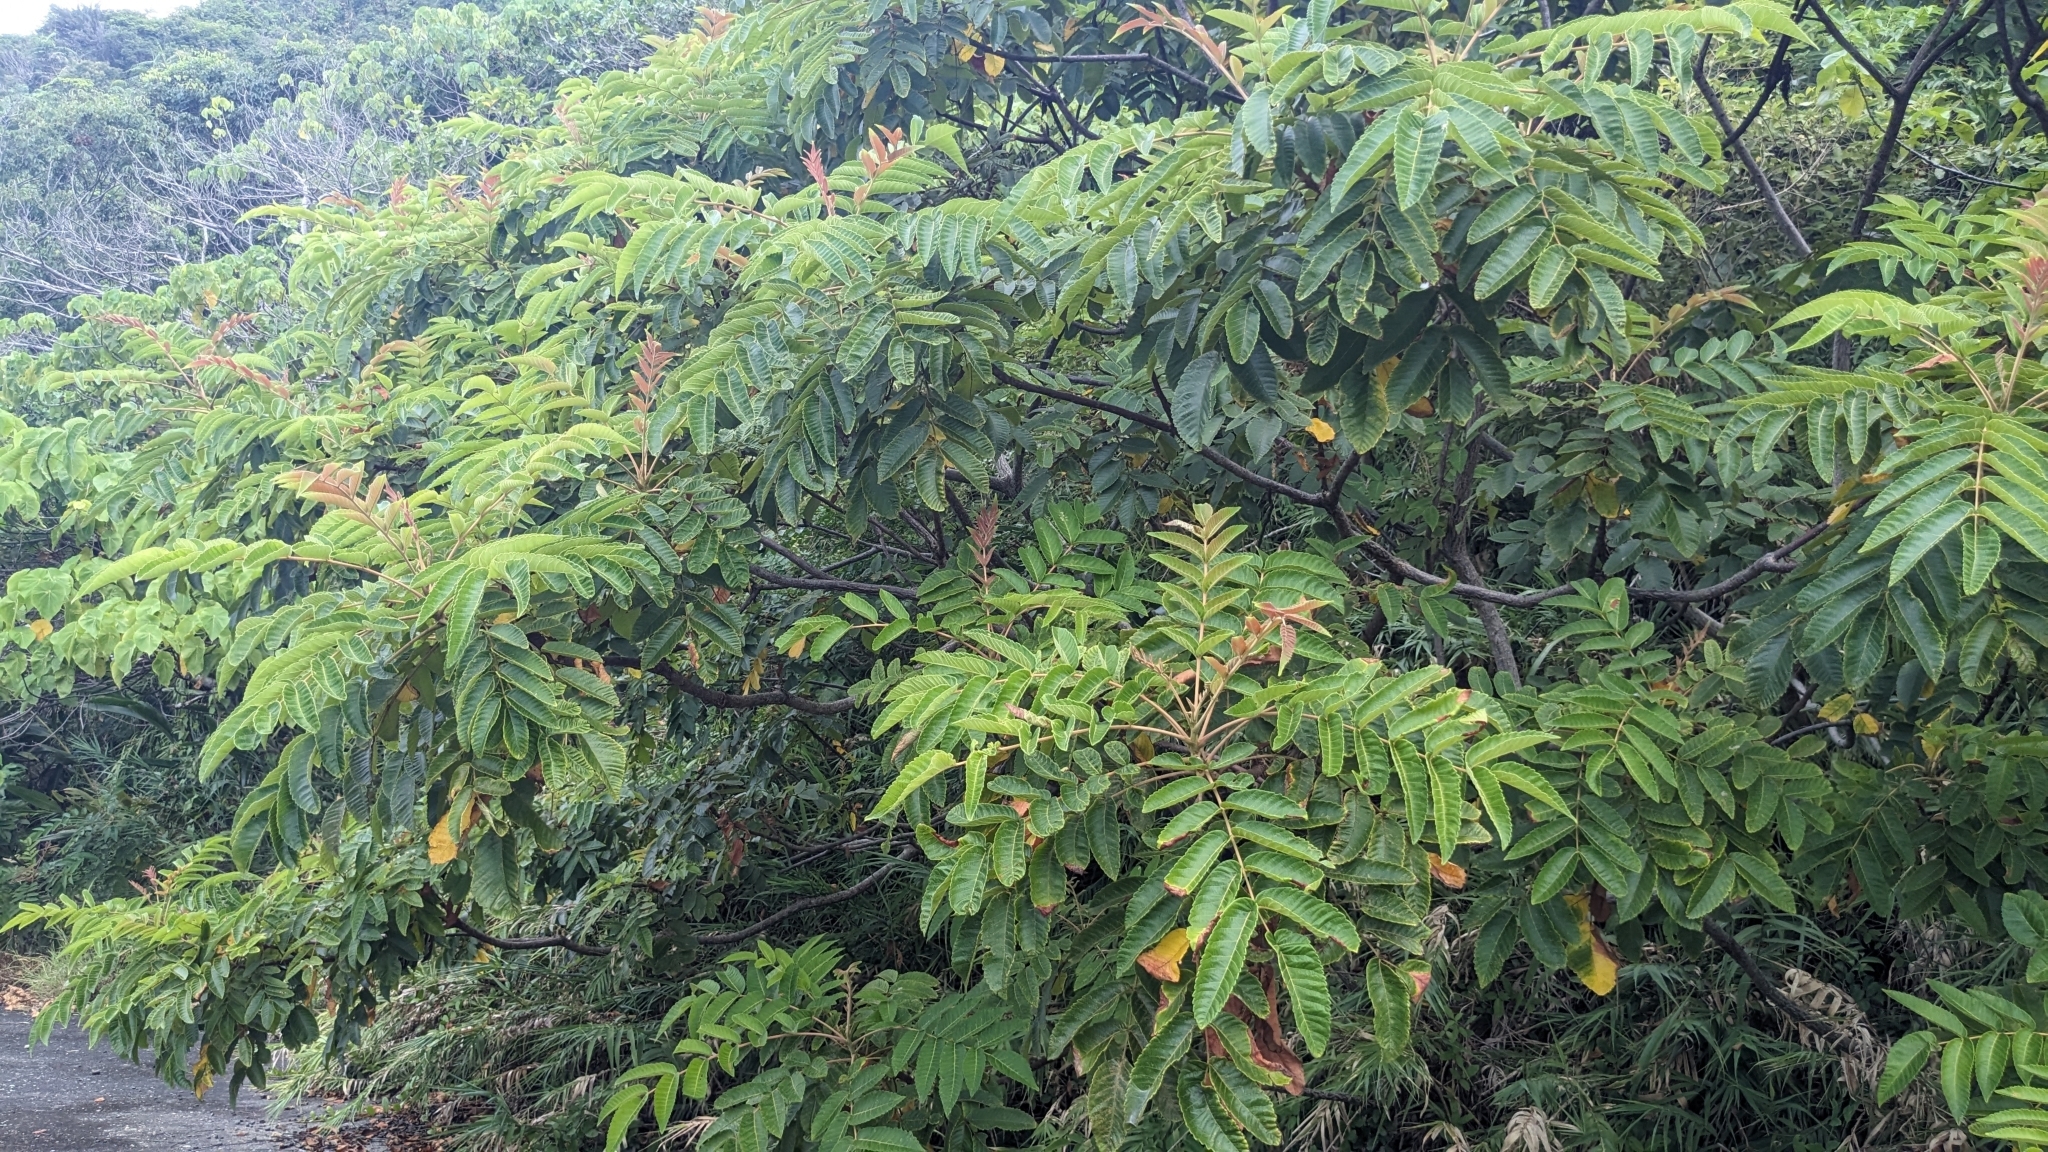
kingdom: Plantae
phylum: Tracheophyta
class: Magnoliopsida
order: Sapindales
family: Anacardiaceae
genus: Rhus
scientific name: Rhus chinensis
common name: Chinese gall
